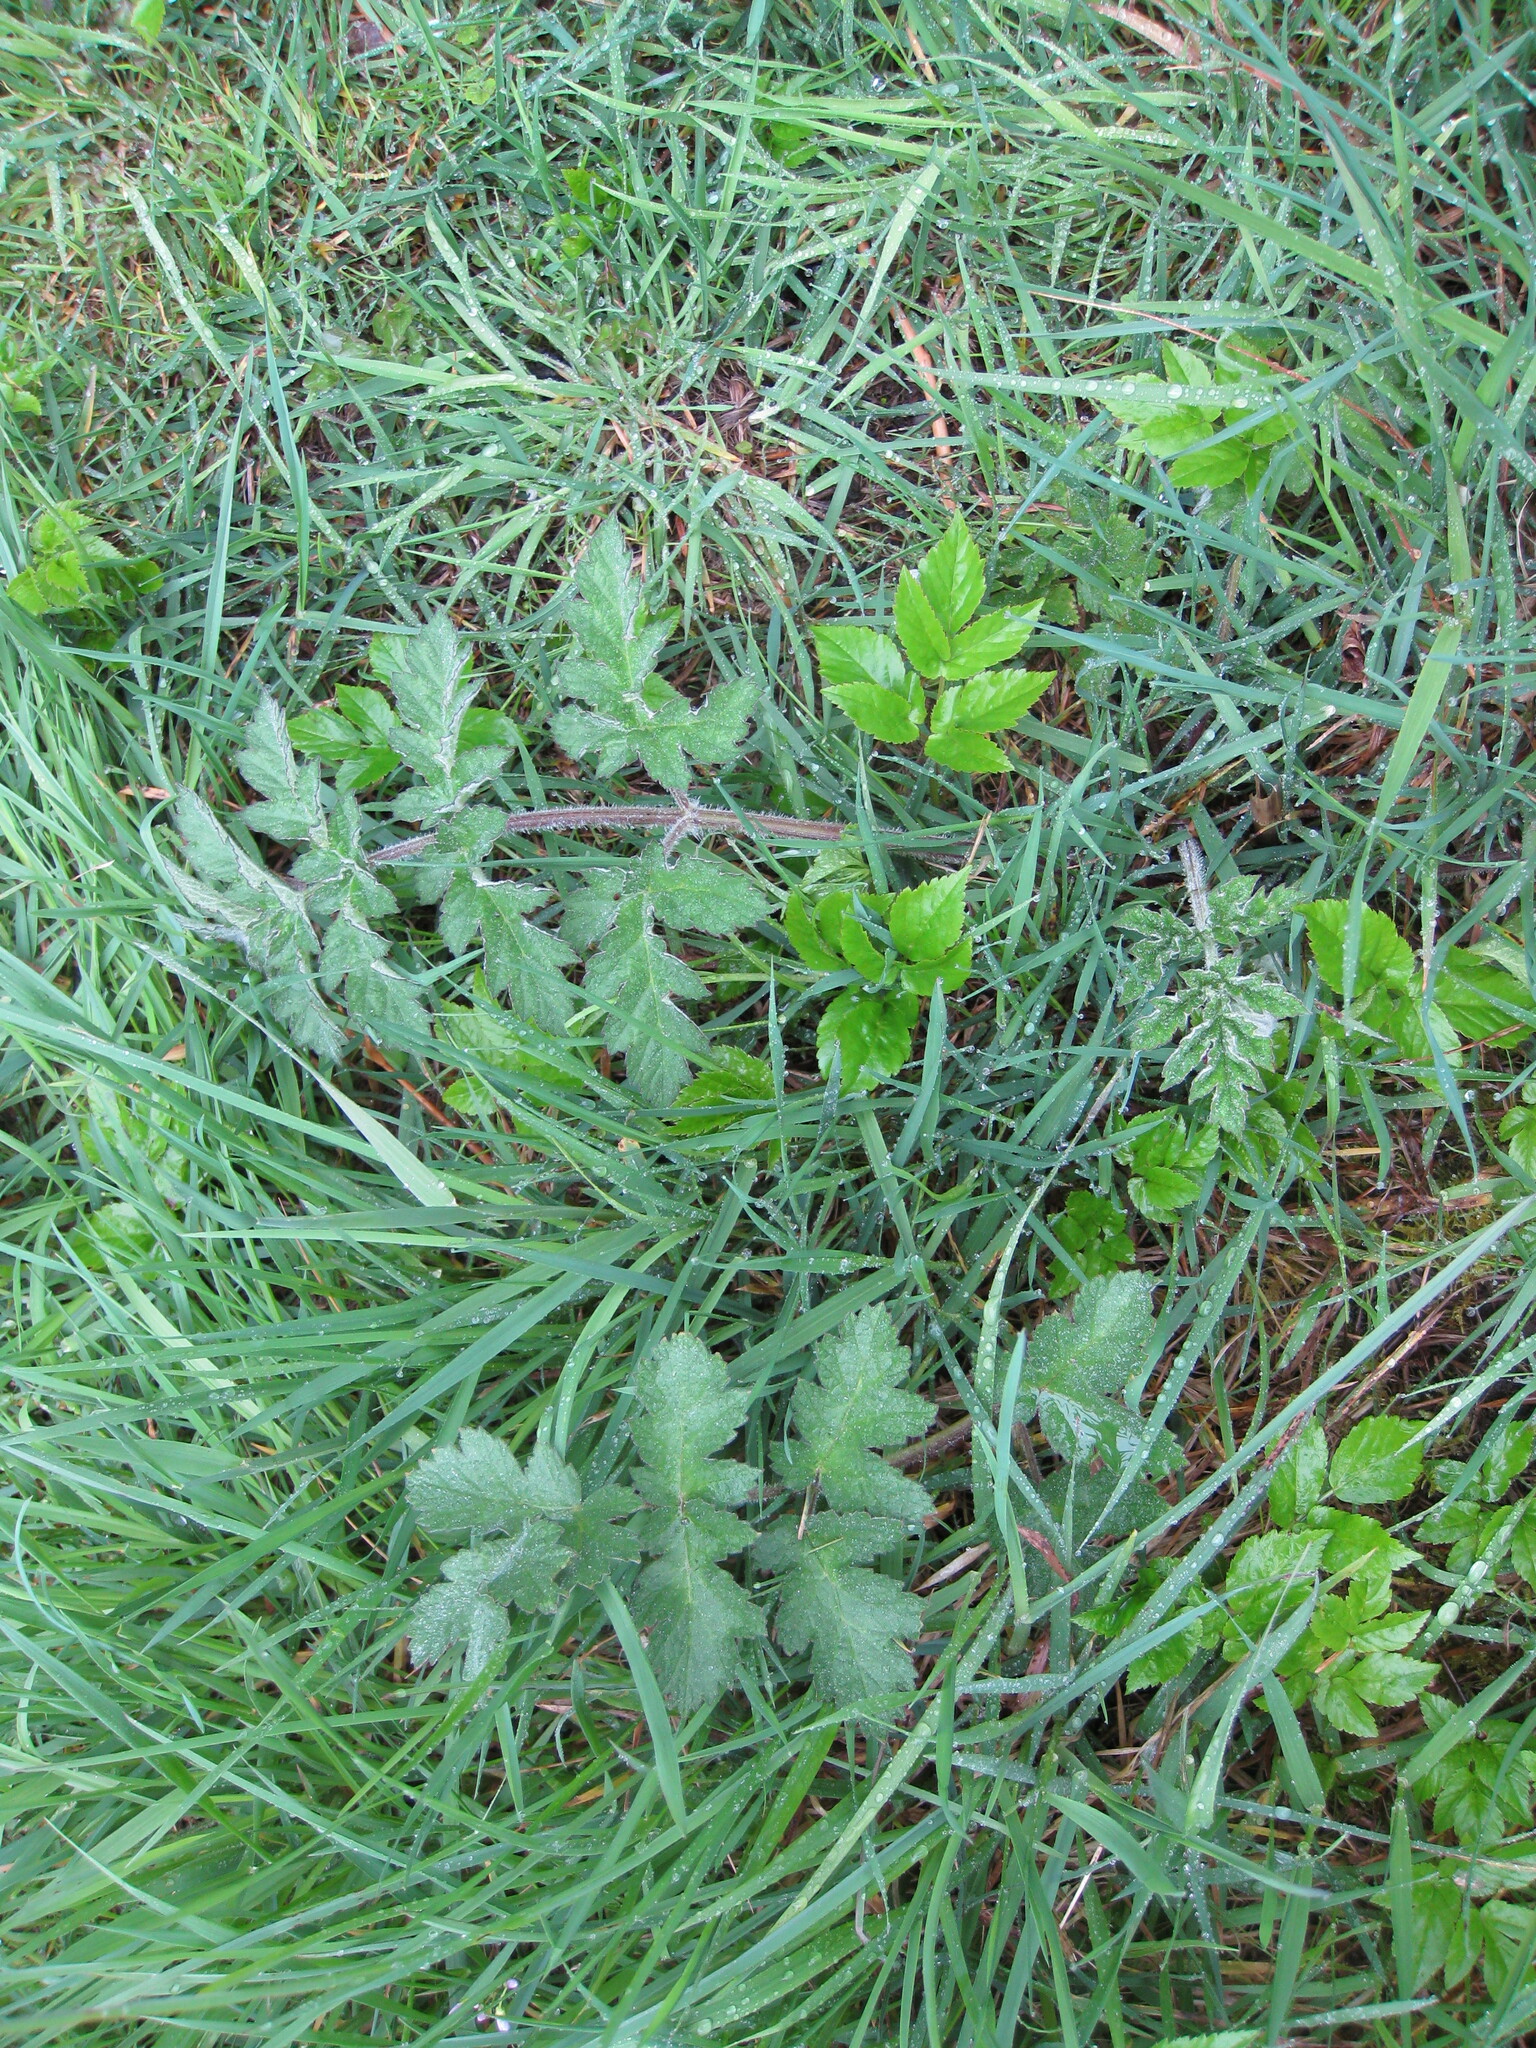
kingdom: Plantae
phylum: Tracheophyta
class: Magnoliopsida
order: Apiales
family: Apiaceae
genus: Heracleum
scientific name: Heracleum sphondylium
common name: Hogweed
